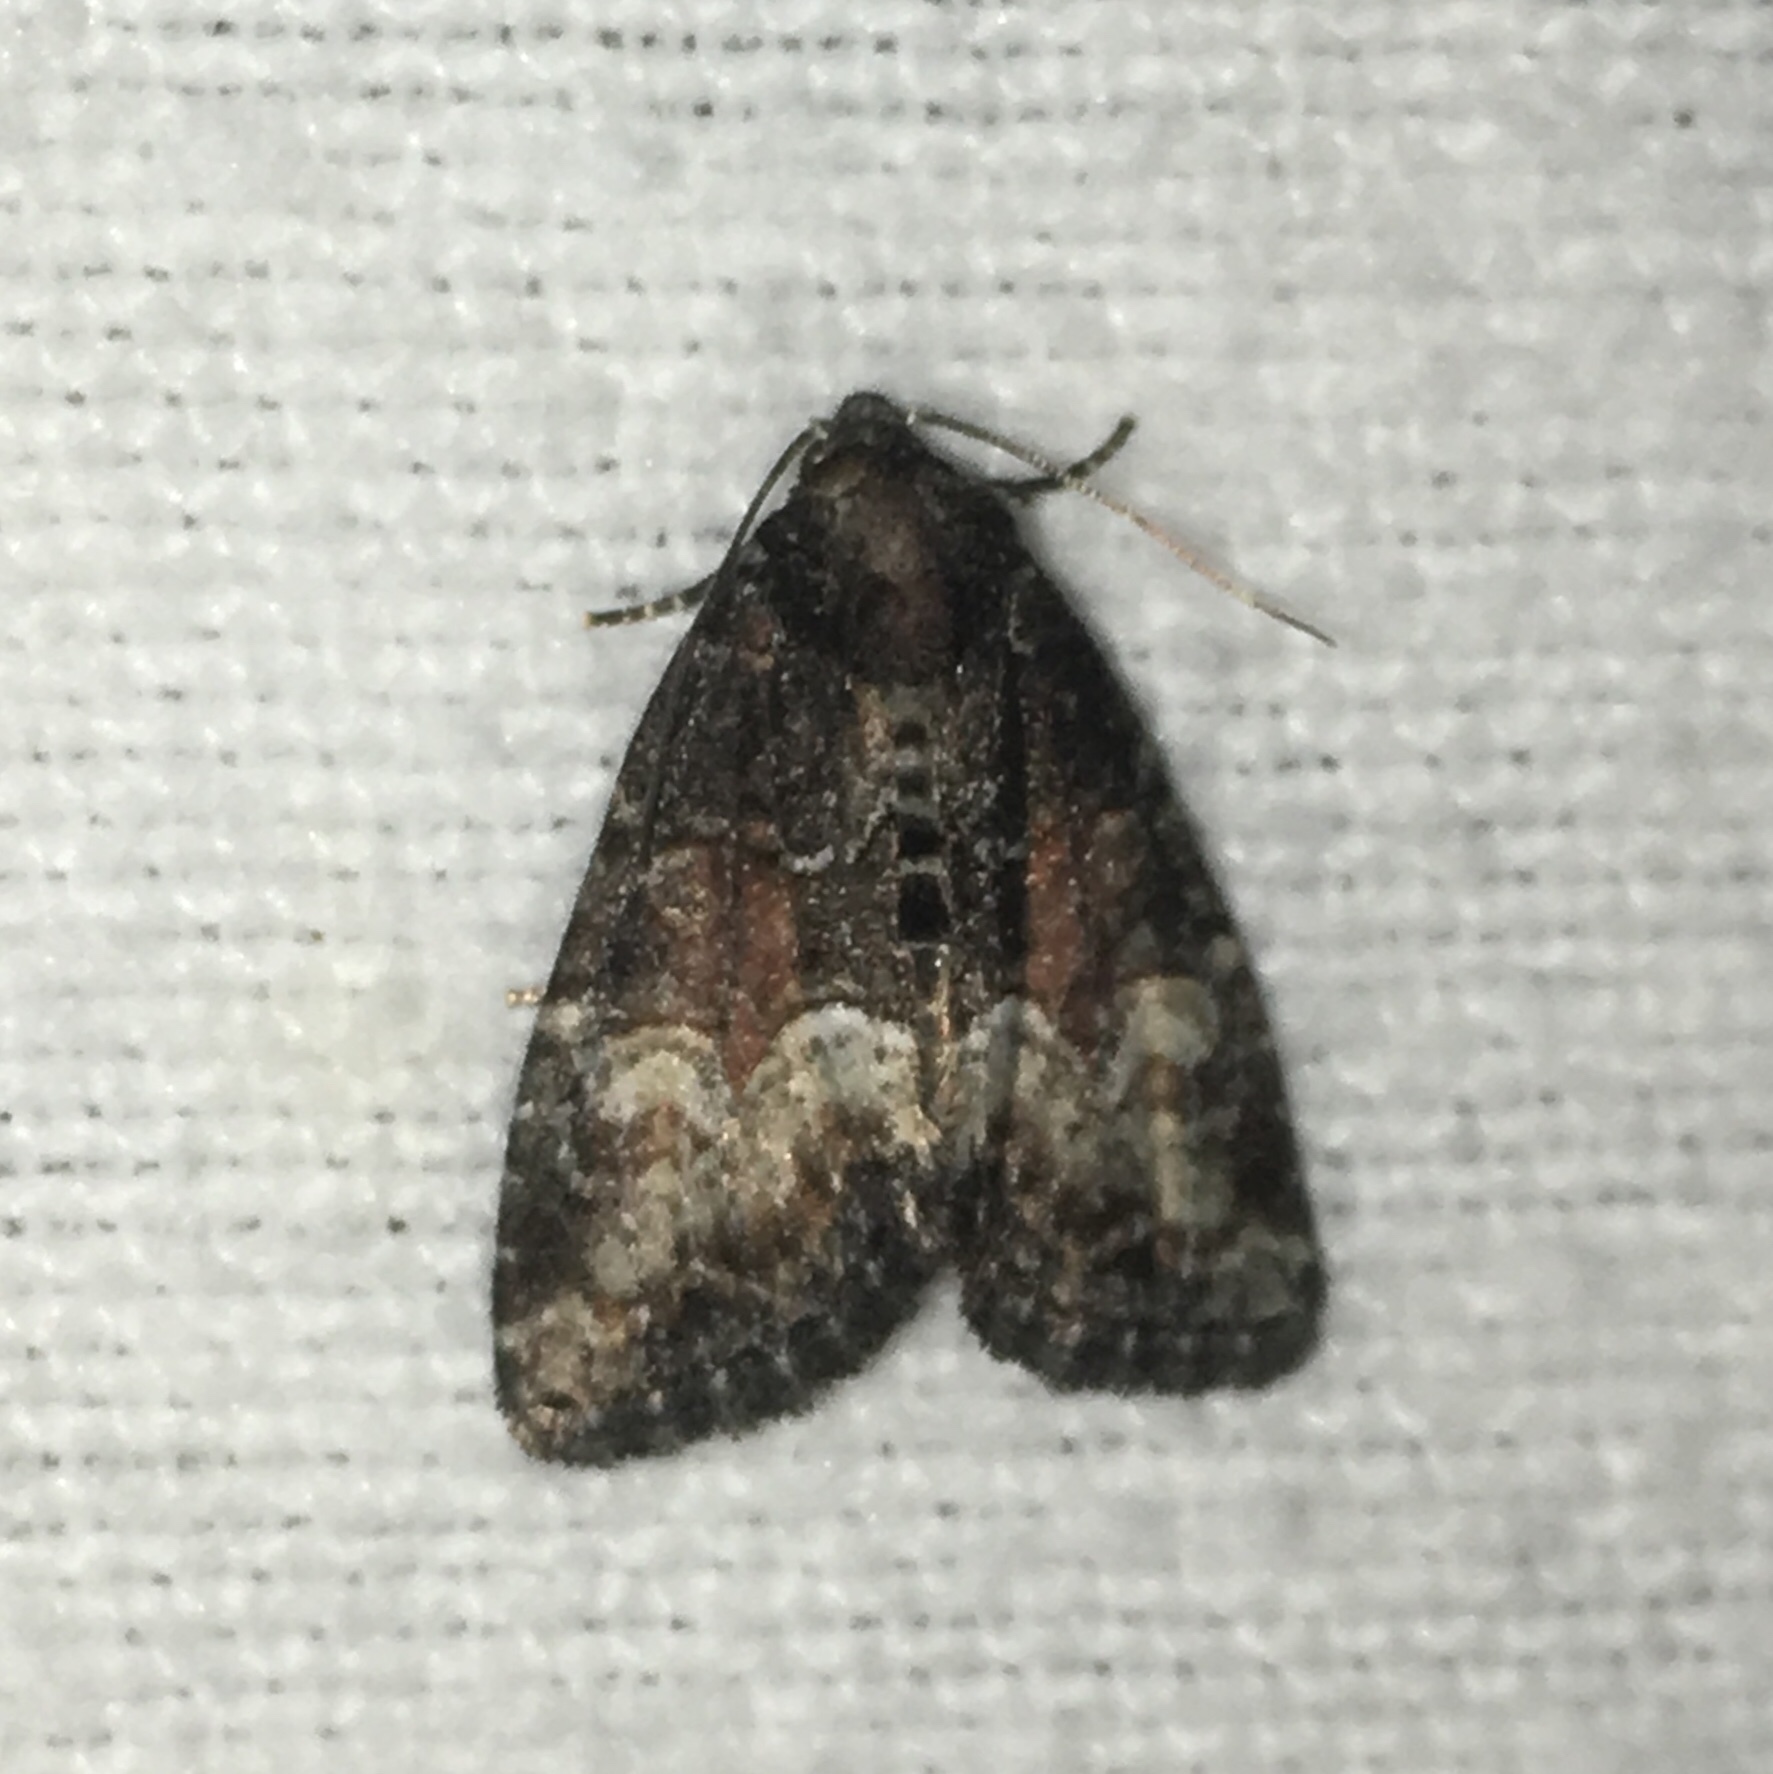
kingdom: Animalia
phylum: Arthropoda
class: Insecta
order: Lepidoptera
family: Noctuidae
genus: Neoligia
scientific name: Neoligia subjuncta
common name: Connected brocade
